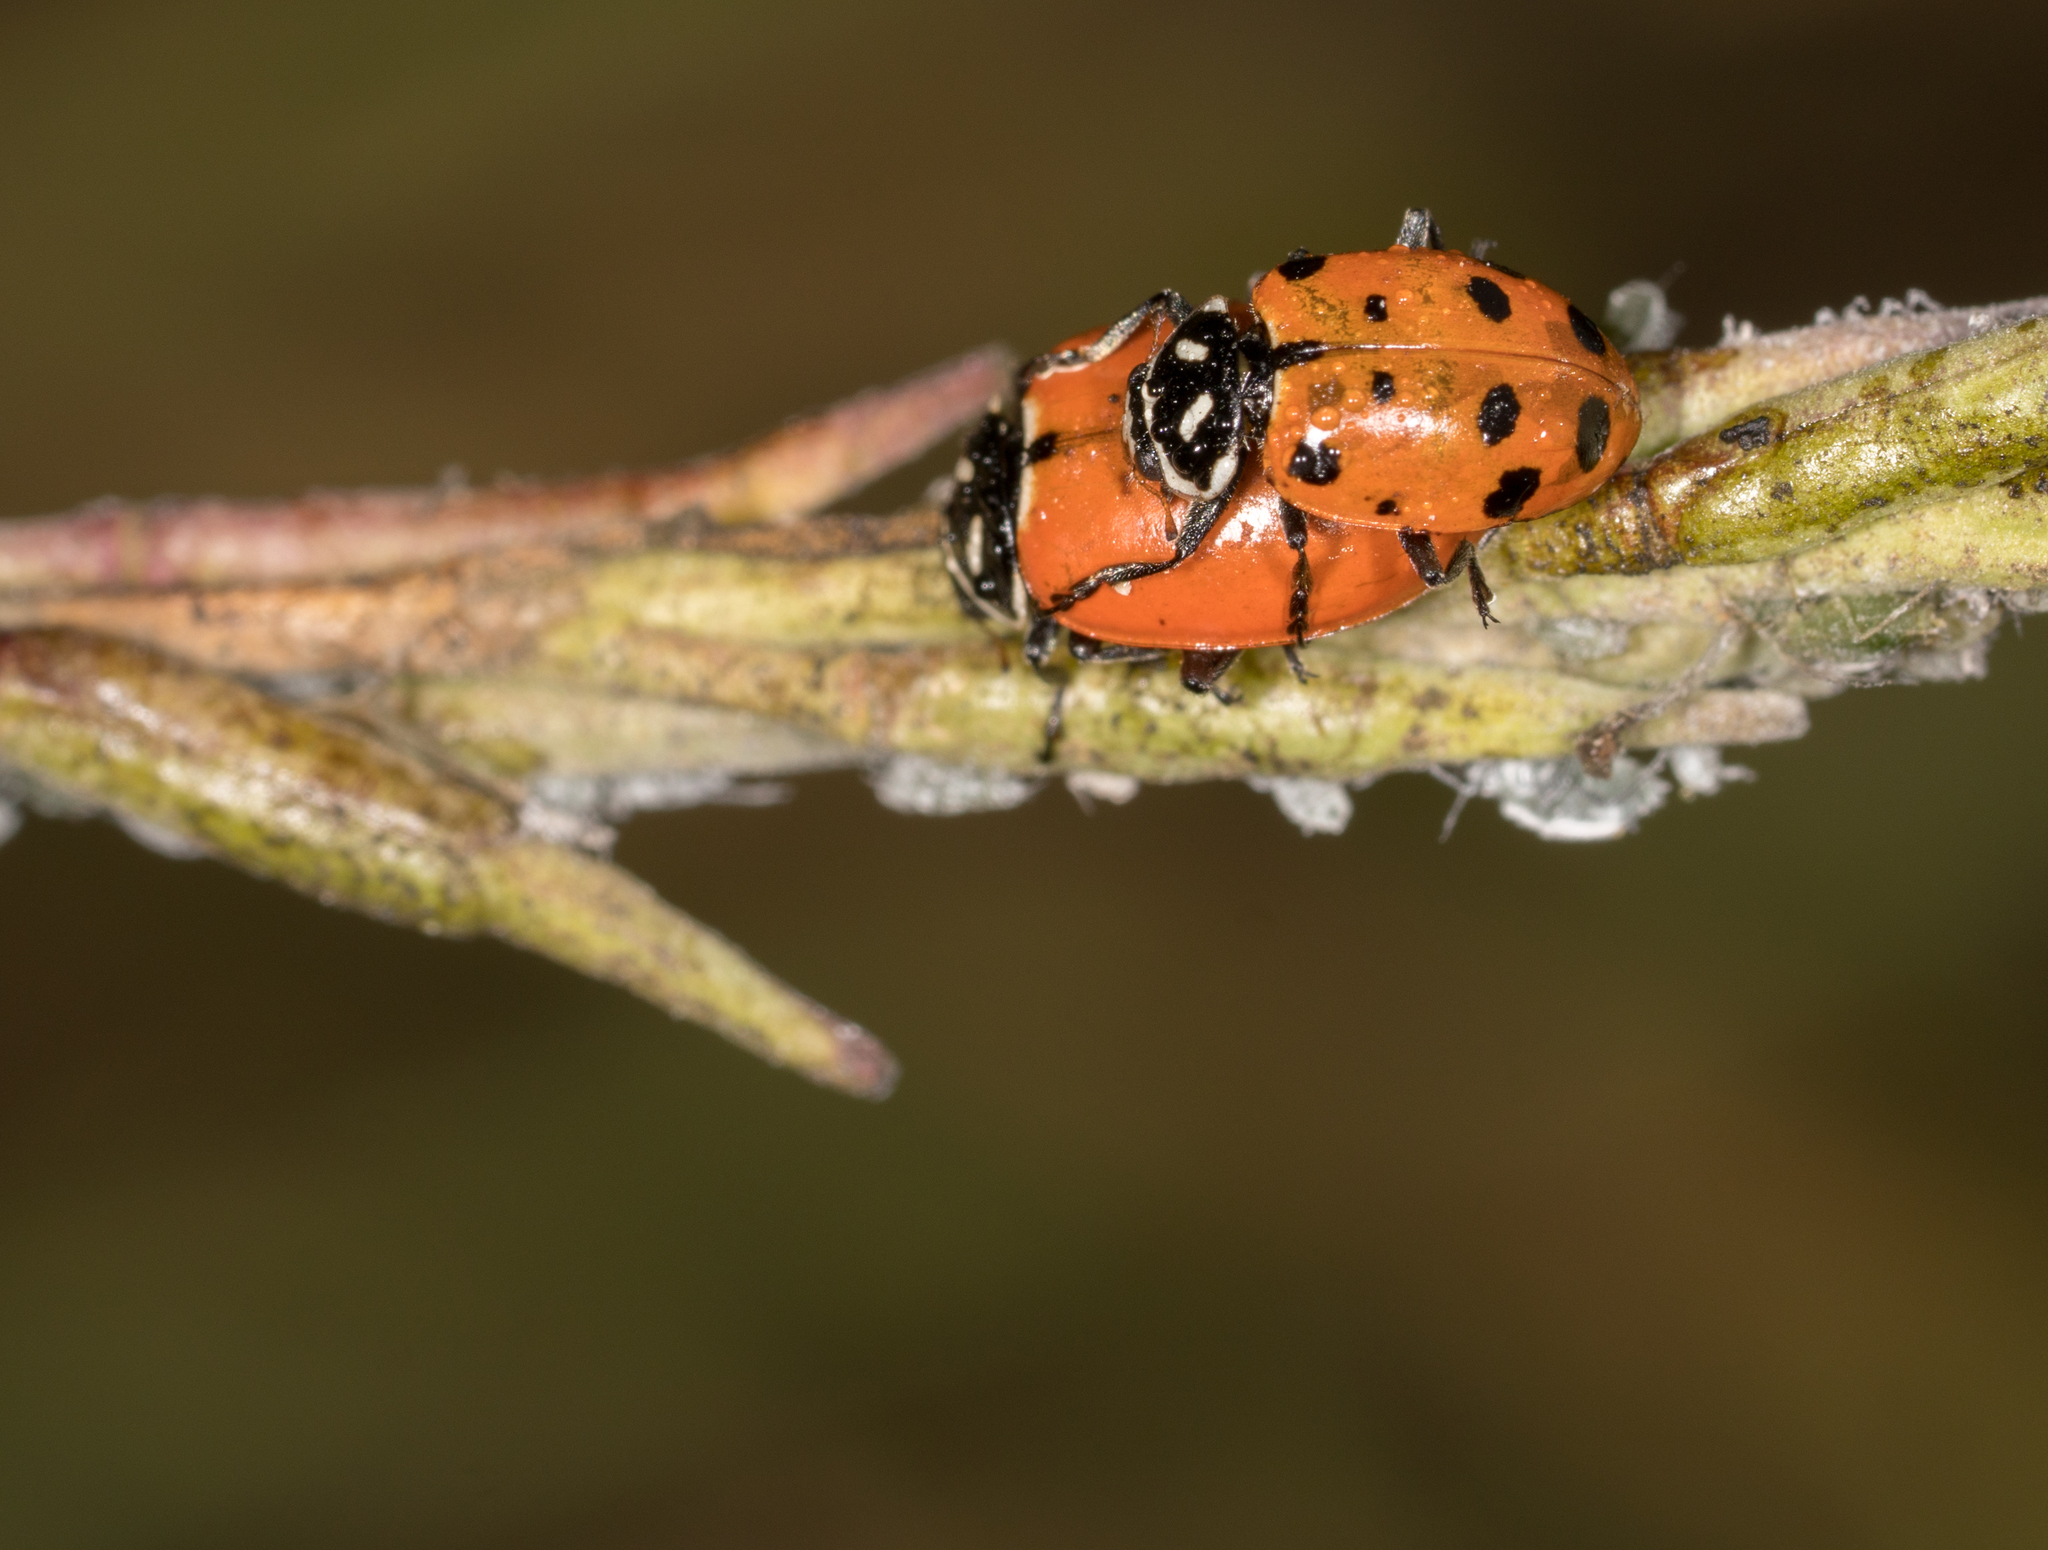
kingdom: Animalia
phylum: Arthropoda
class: Insecta
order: Coleoptera
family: Coccinellidae
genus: Hippodamia
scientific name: Hippodamia convergens
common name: Convergent lady beetle
